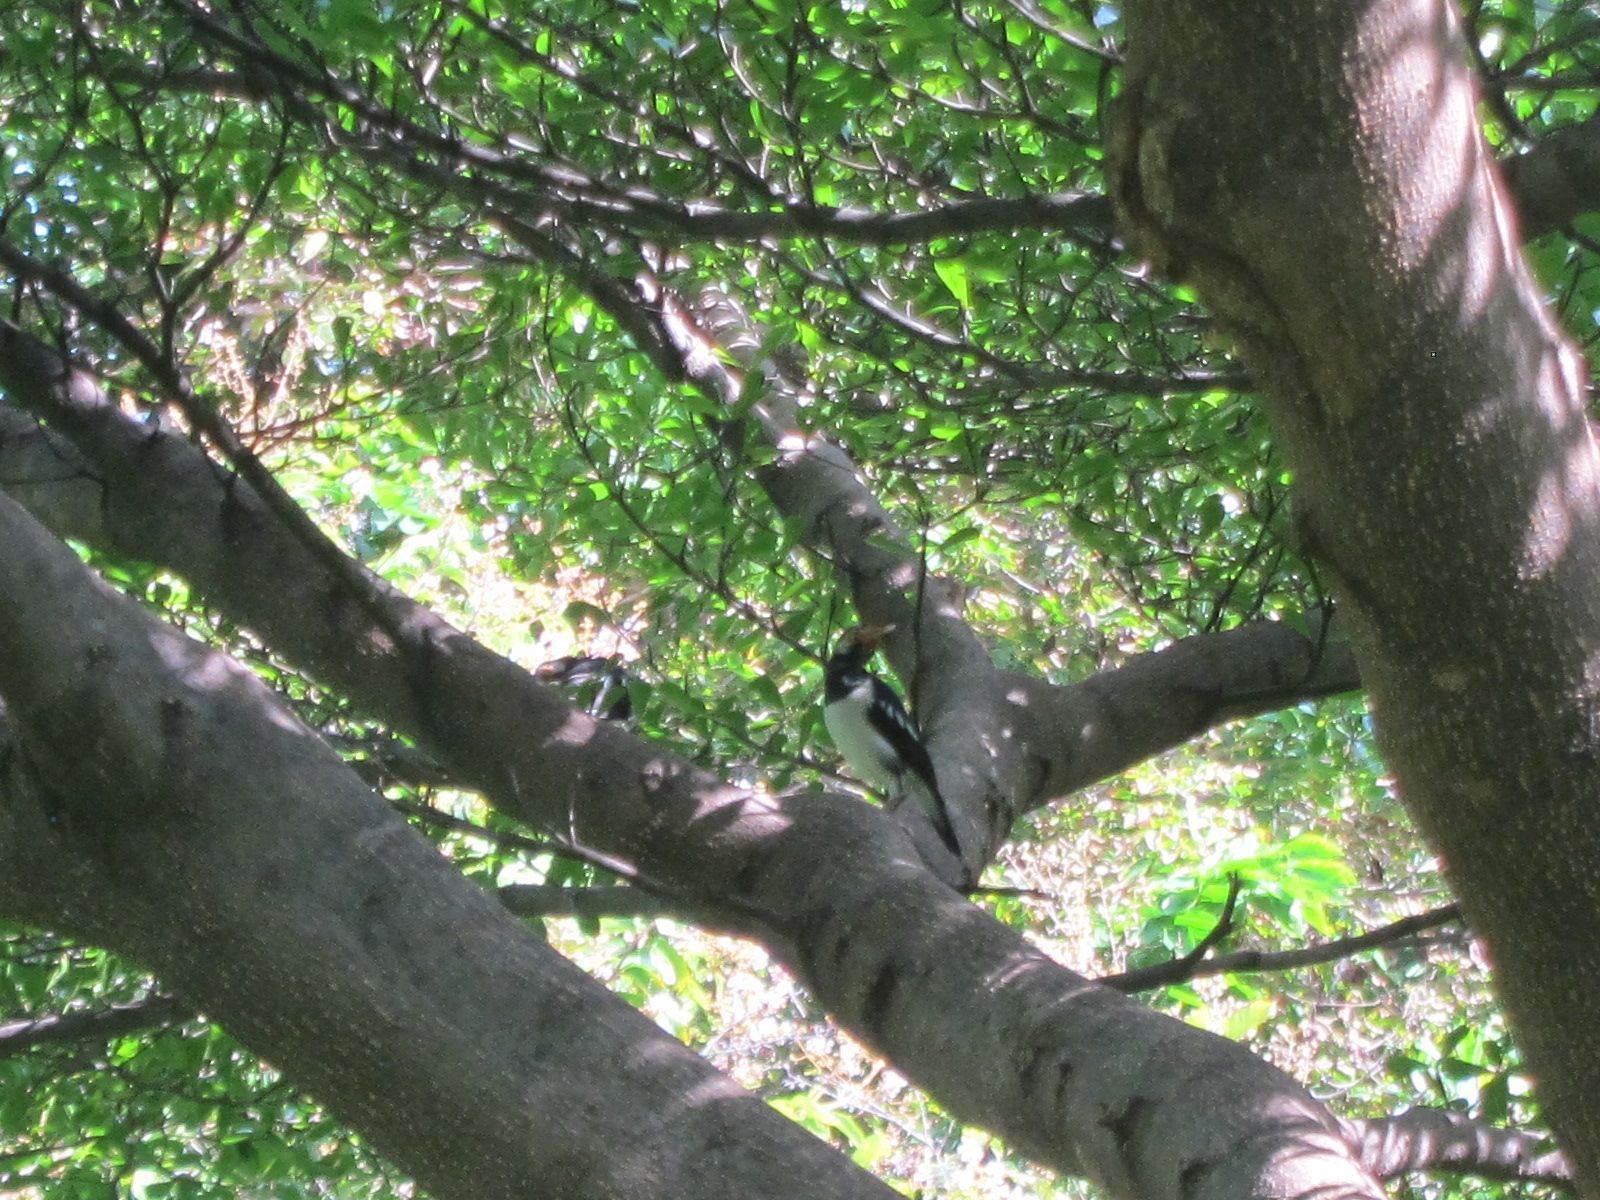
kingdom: Animalia
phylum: Chordata
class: Aves
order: Passeriformes
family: Sturnidae
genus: Gracupica
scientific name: Gracupica contra
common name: Pied myna
